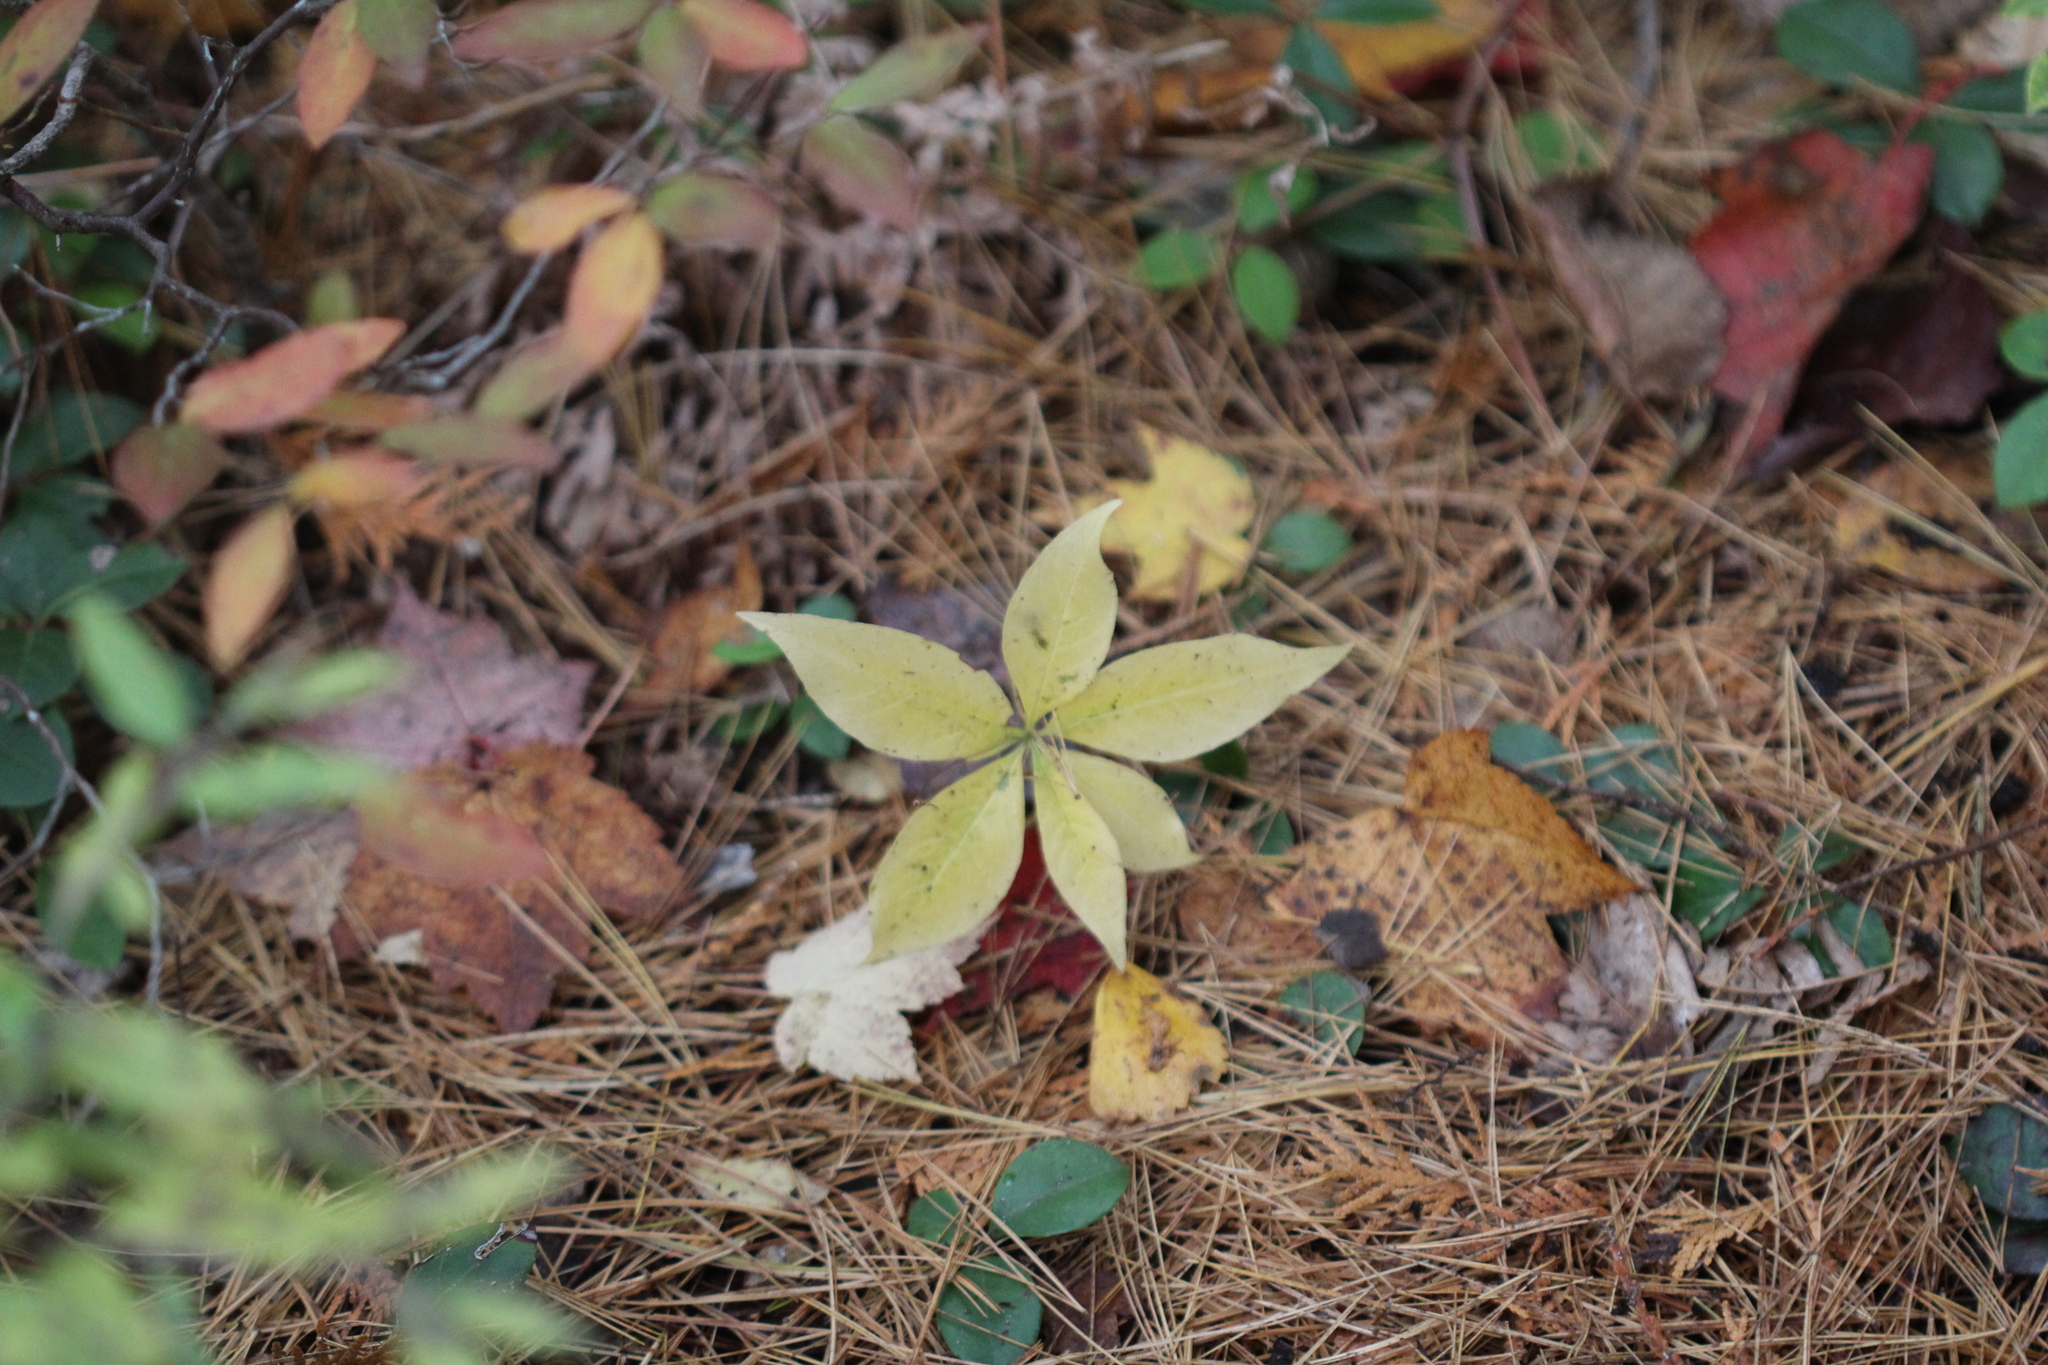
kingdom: Plantae
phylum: Tracheophyta
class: Magnoliopsida
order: Ericales
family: Primulaceae
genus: Lysimachia
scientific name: Lysimachia borealis
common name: American starflower
